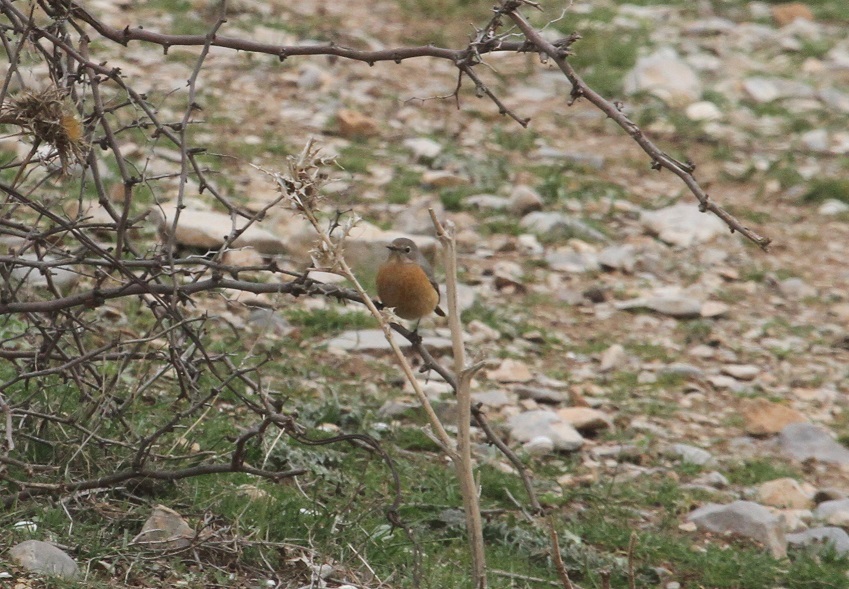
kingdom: Animalia
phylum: Chordata
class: Aves
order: Passeriformes
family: Muscicapidae
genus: Phoenicurus
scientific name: Phoenicurus moussieri
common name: Moussier's redstart
